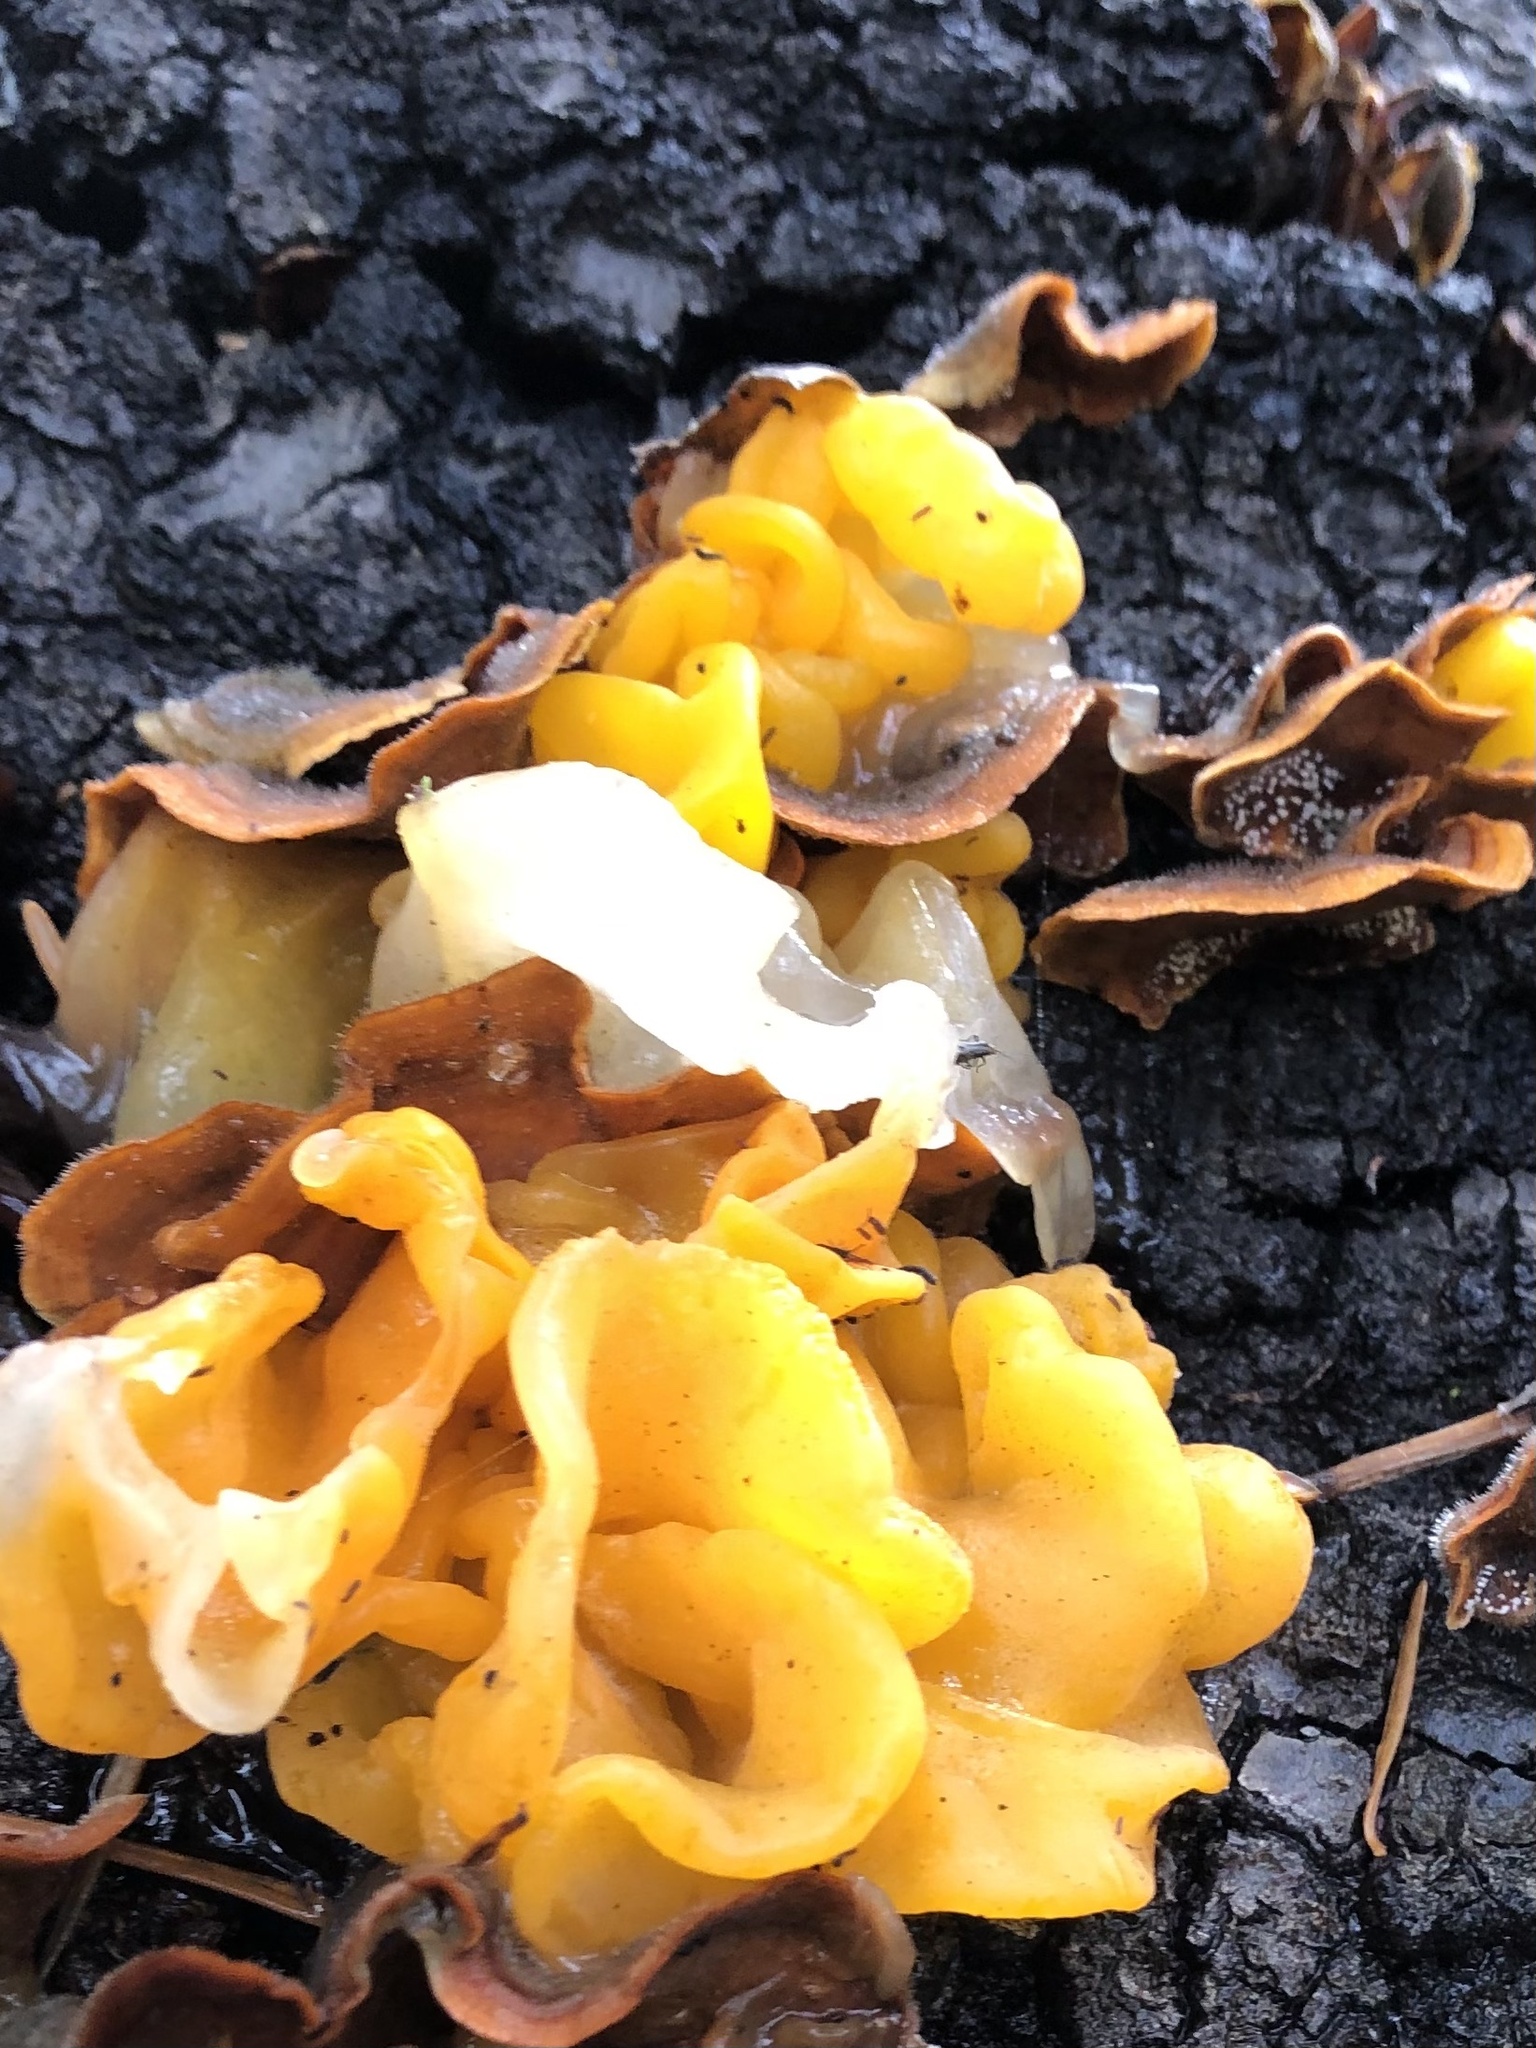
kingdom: Fungi
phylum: Basidiomycota
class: Tremellomycetes
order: Tremellales
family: Naemateliaceae
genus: Naematelia
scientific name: Naematelia aurantia
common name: Golden ear
